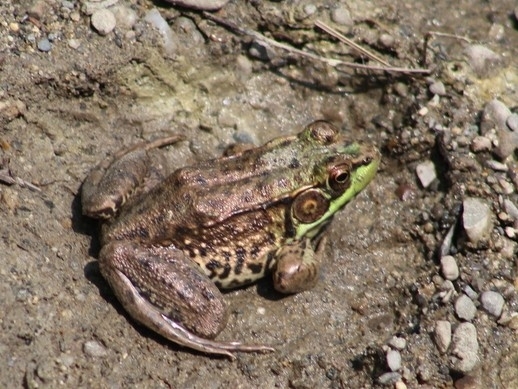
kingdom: Animalia
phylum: Chordata
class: Amphibia
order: Anura
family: Ranidae
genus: Lithobates
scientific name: Lithobates clamitans
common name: Green frog
